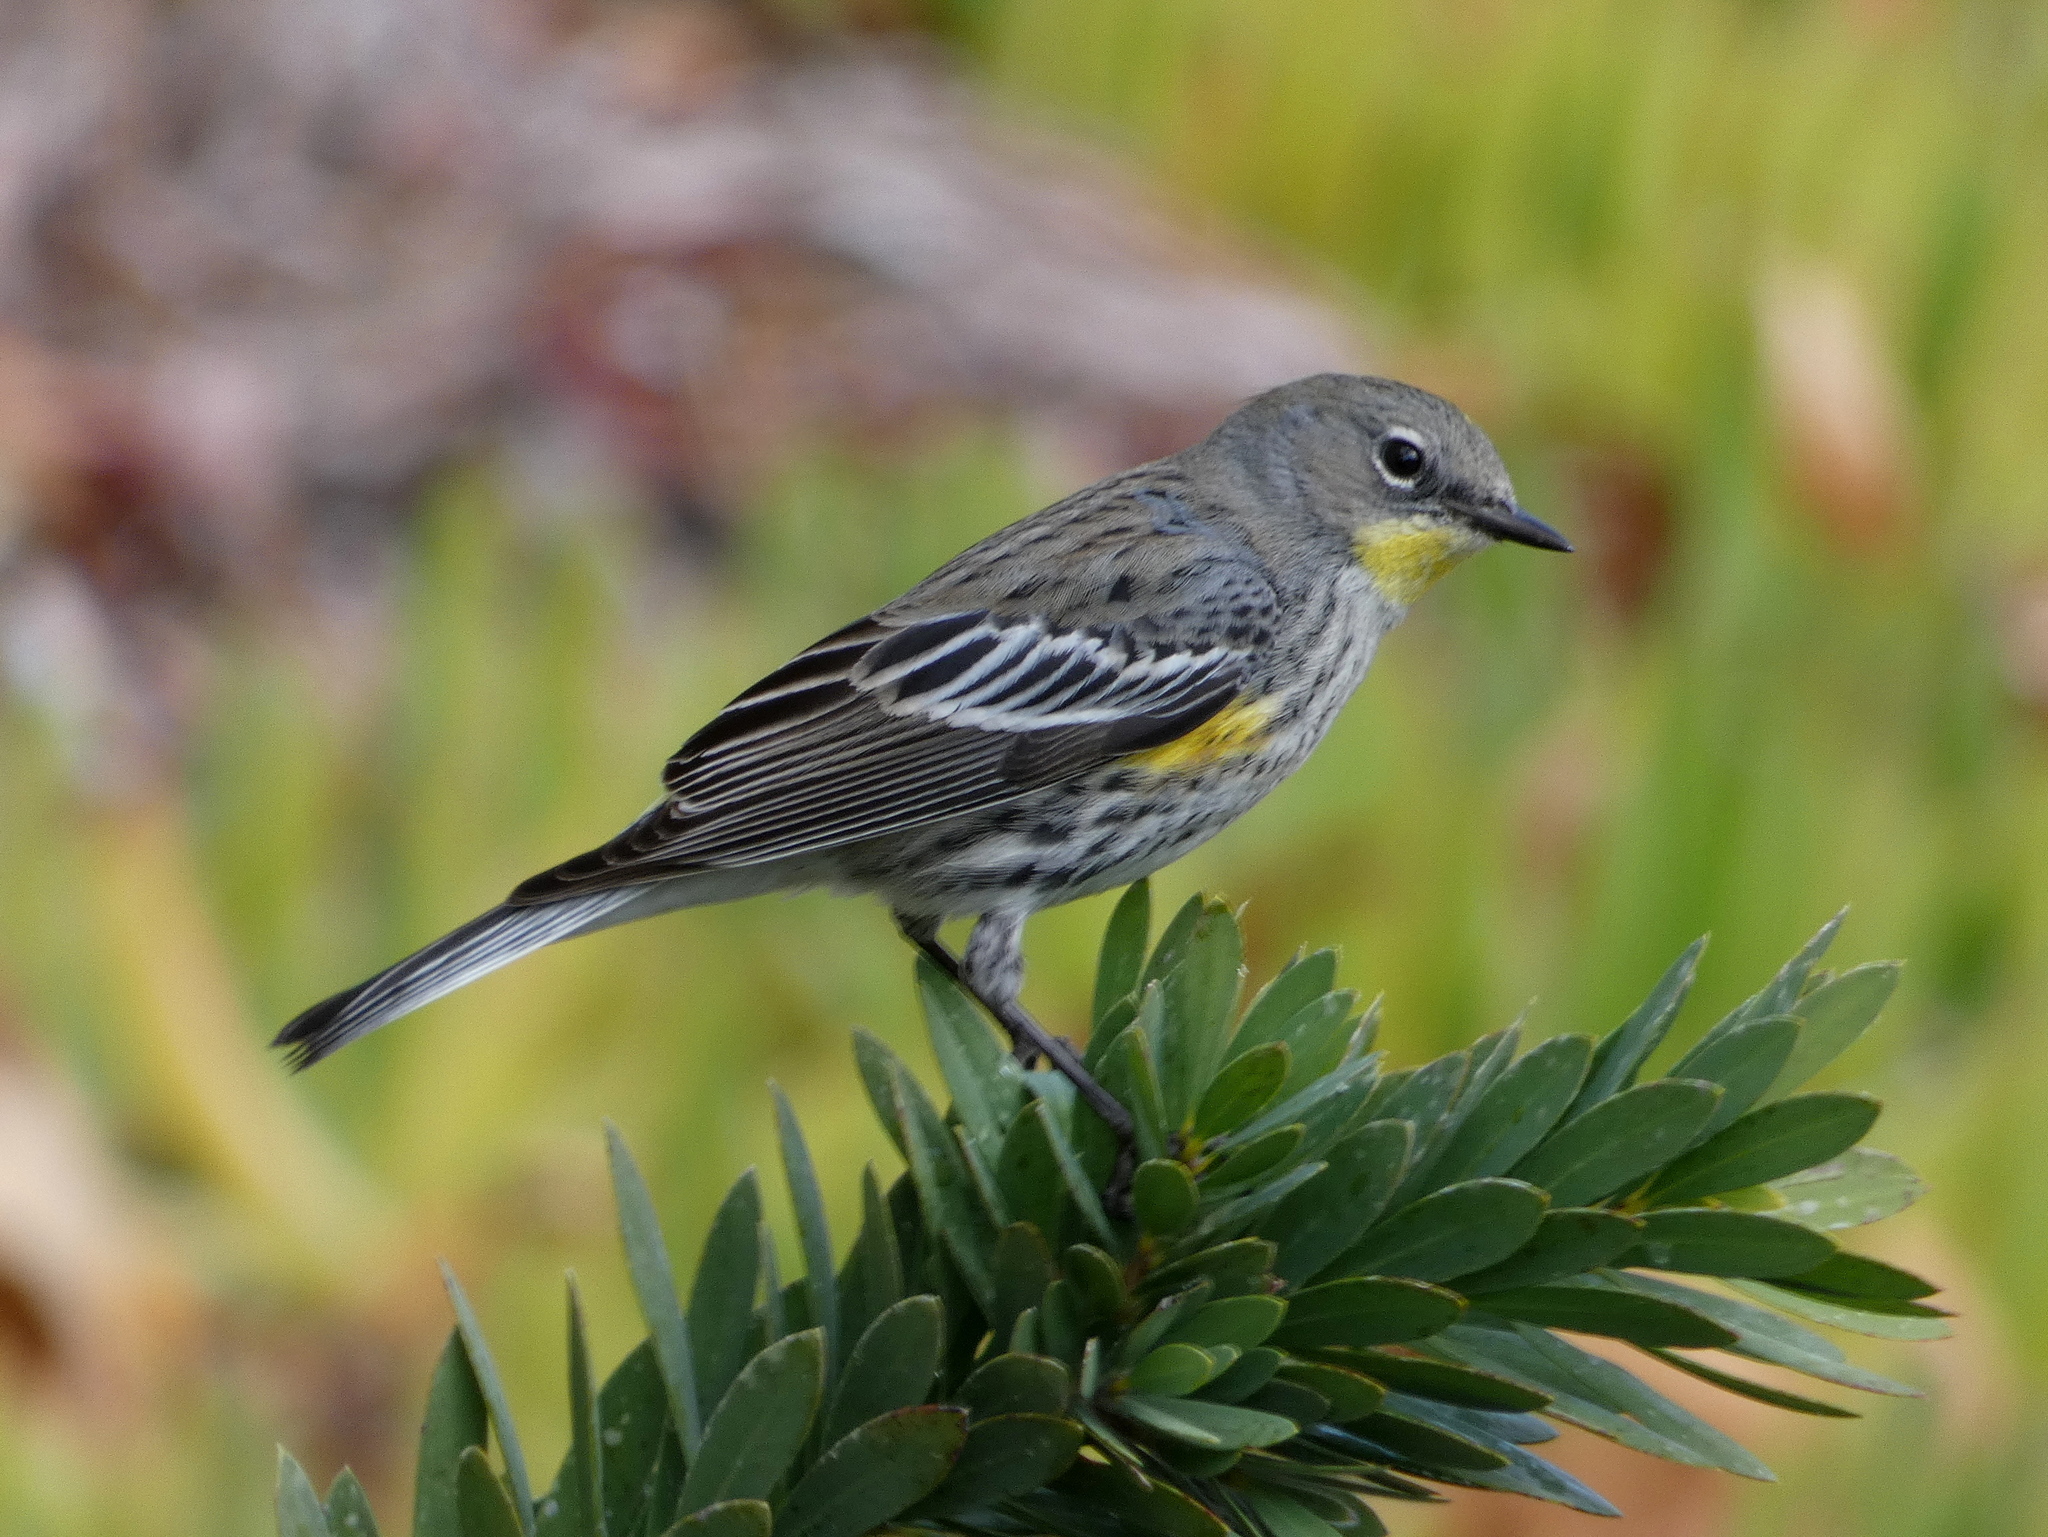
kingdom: Animalia
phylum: Chordata
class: Aves
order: Passeriformes
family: Parulidae
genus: Setophaga
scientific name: Setophaga coronata
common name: Myrtle warbler
